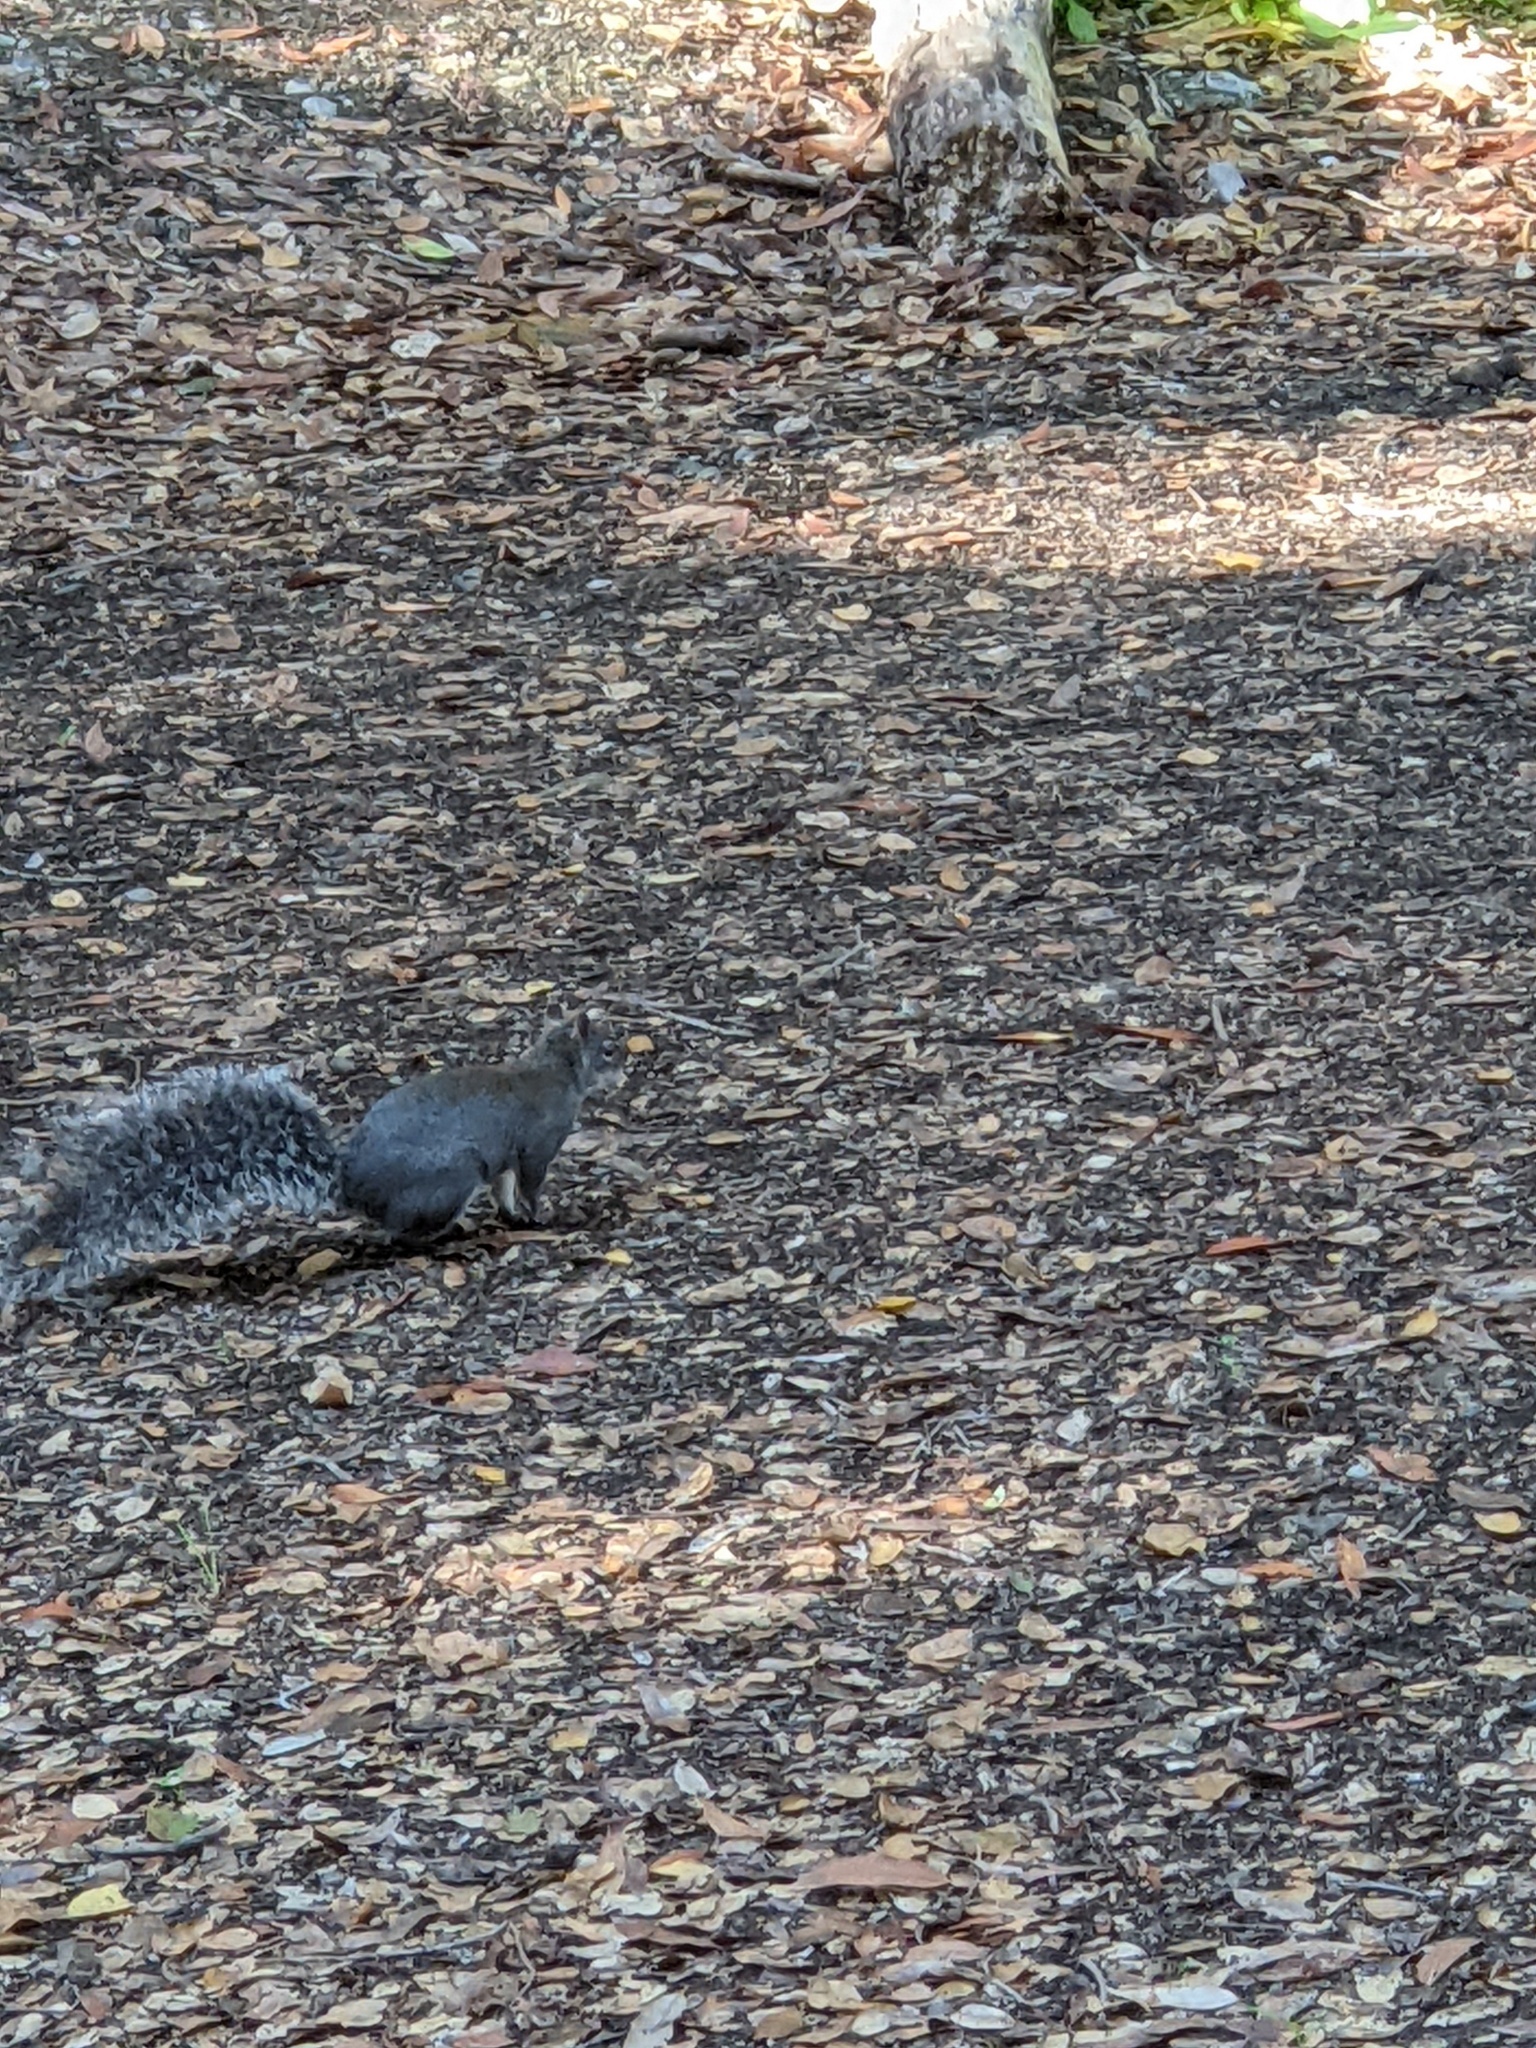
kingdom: Animalia
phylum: Chordata
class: Mammalia
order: Rodentia
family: Sciuridae
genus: Sciurus
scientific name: Sciurus griseus
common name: Western gray squirrel
